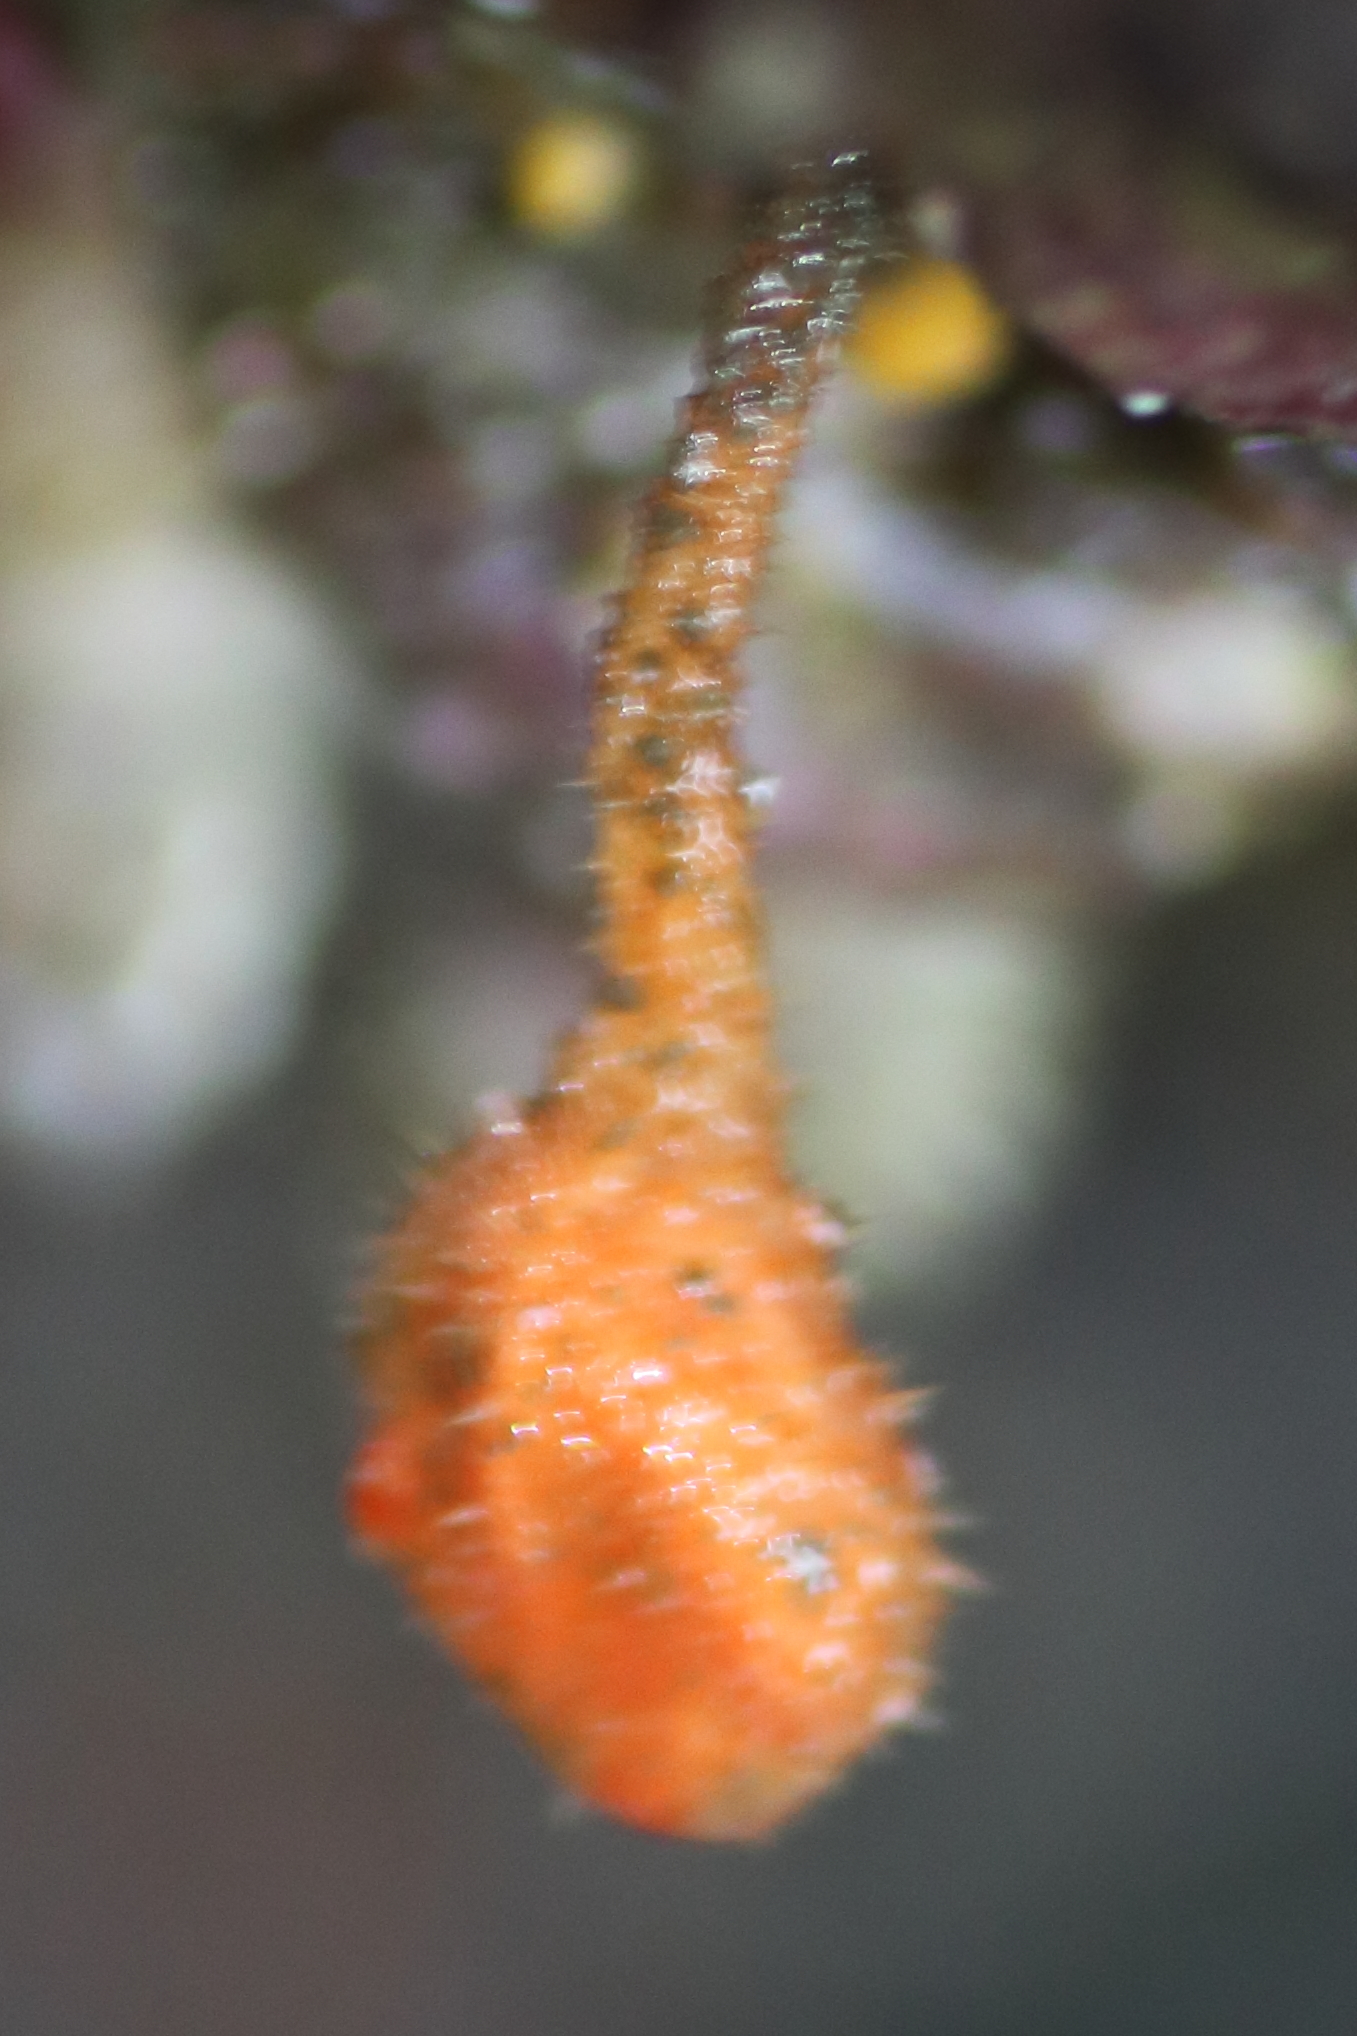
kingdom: Animalia
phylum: Chordata
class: Ascidiacea
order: Stolidobranchia
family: Pyuridae
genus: Boltenia
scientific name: Boltenia villosa
